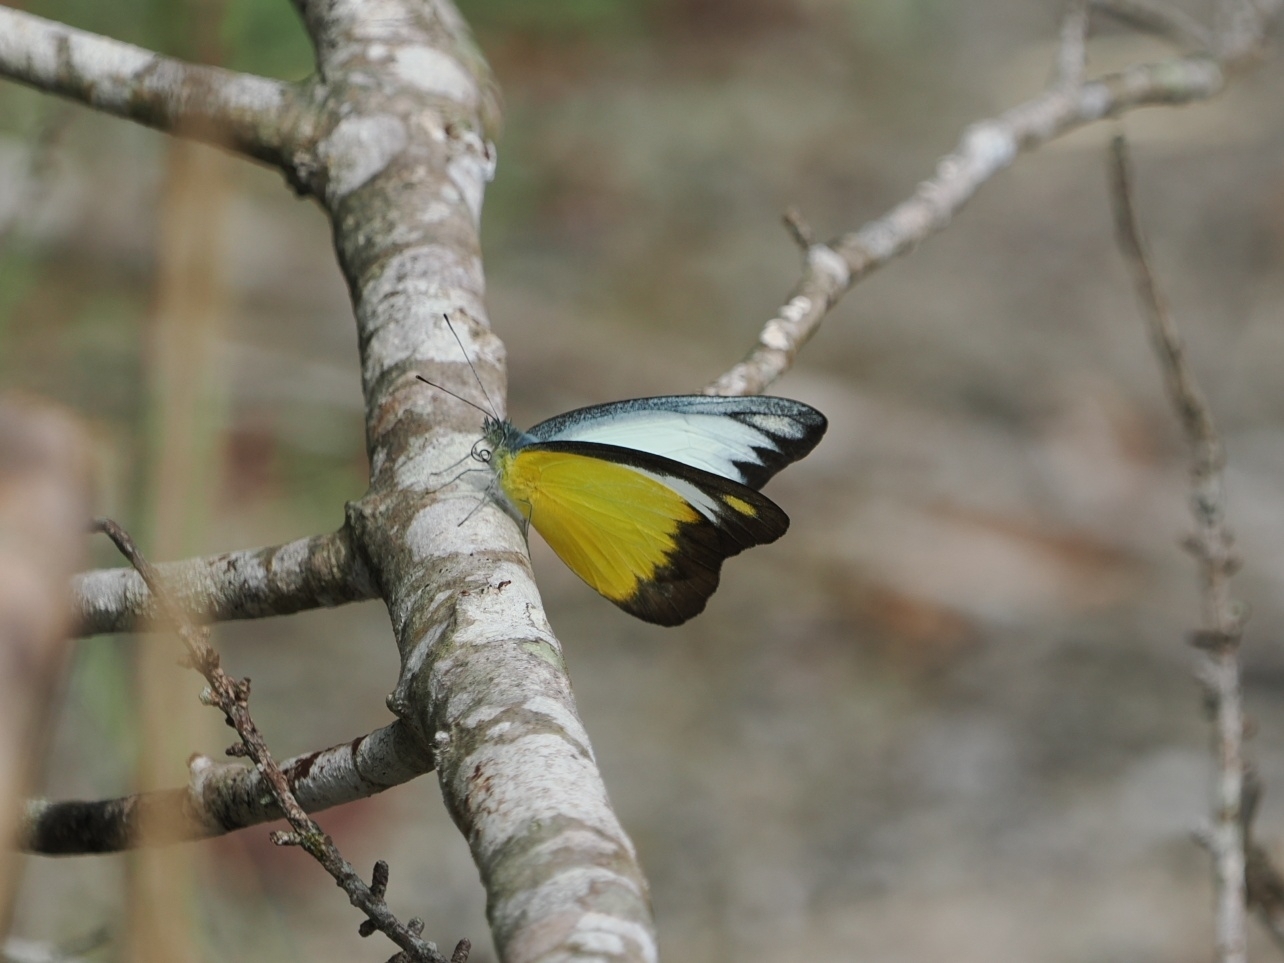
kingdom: Animalia
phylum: Arthropoda
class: Insecta
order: Lepidoptera
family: Pieridae
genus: Appias
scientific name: Appias lyncida
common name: Chocolate albatross
